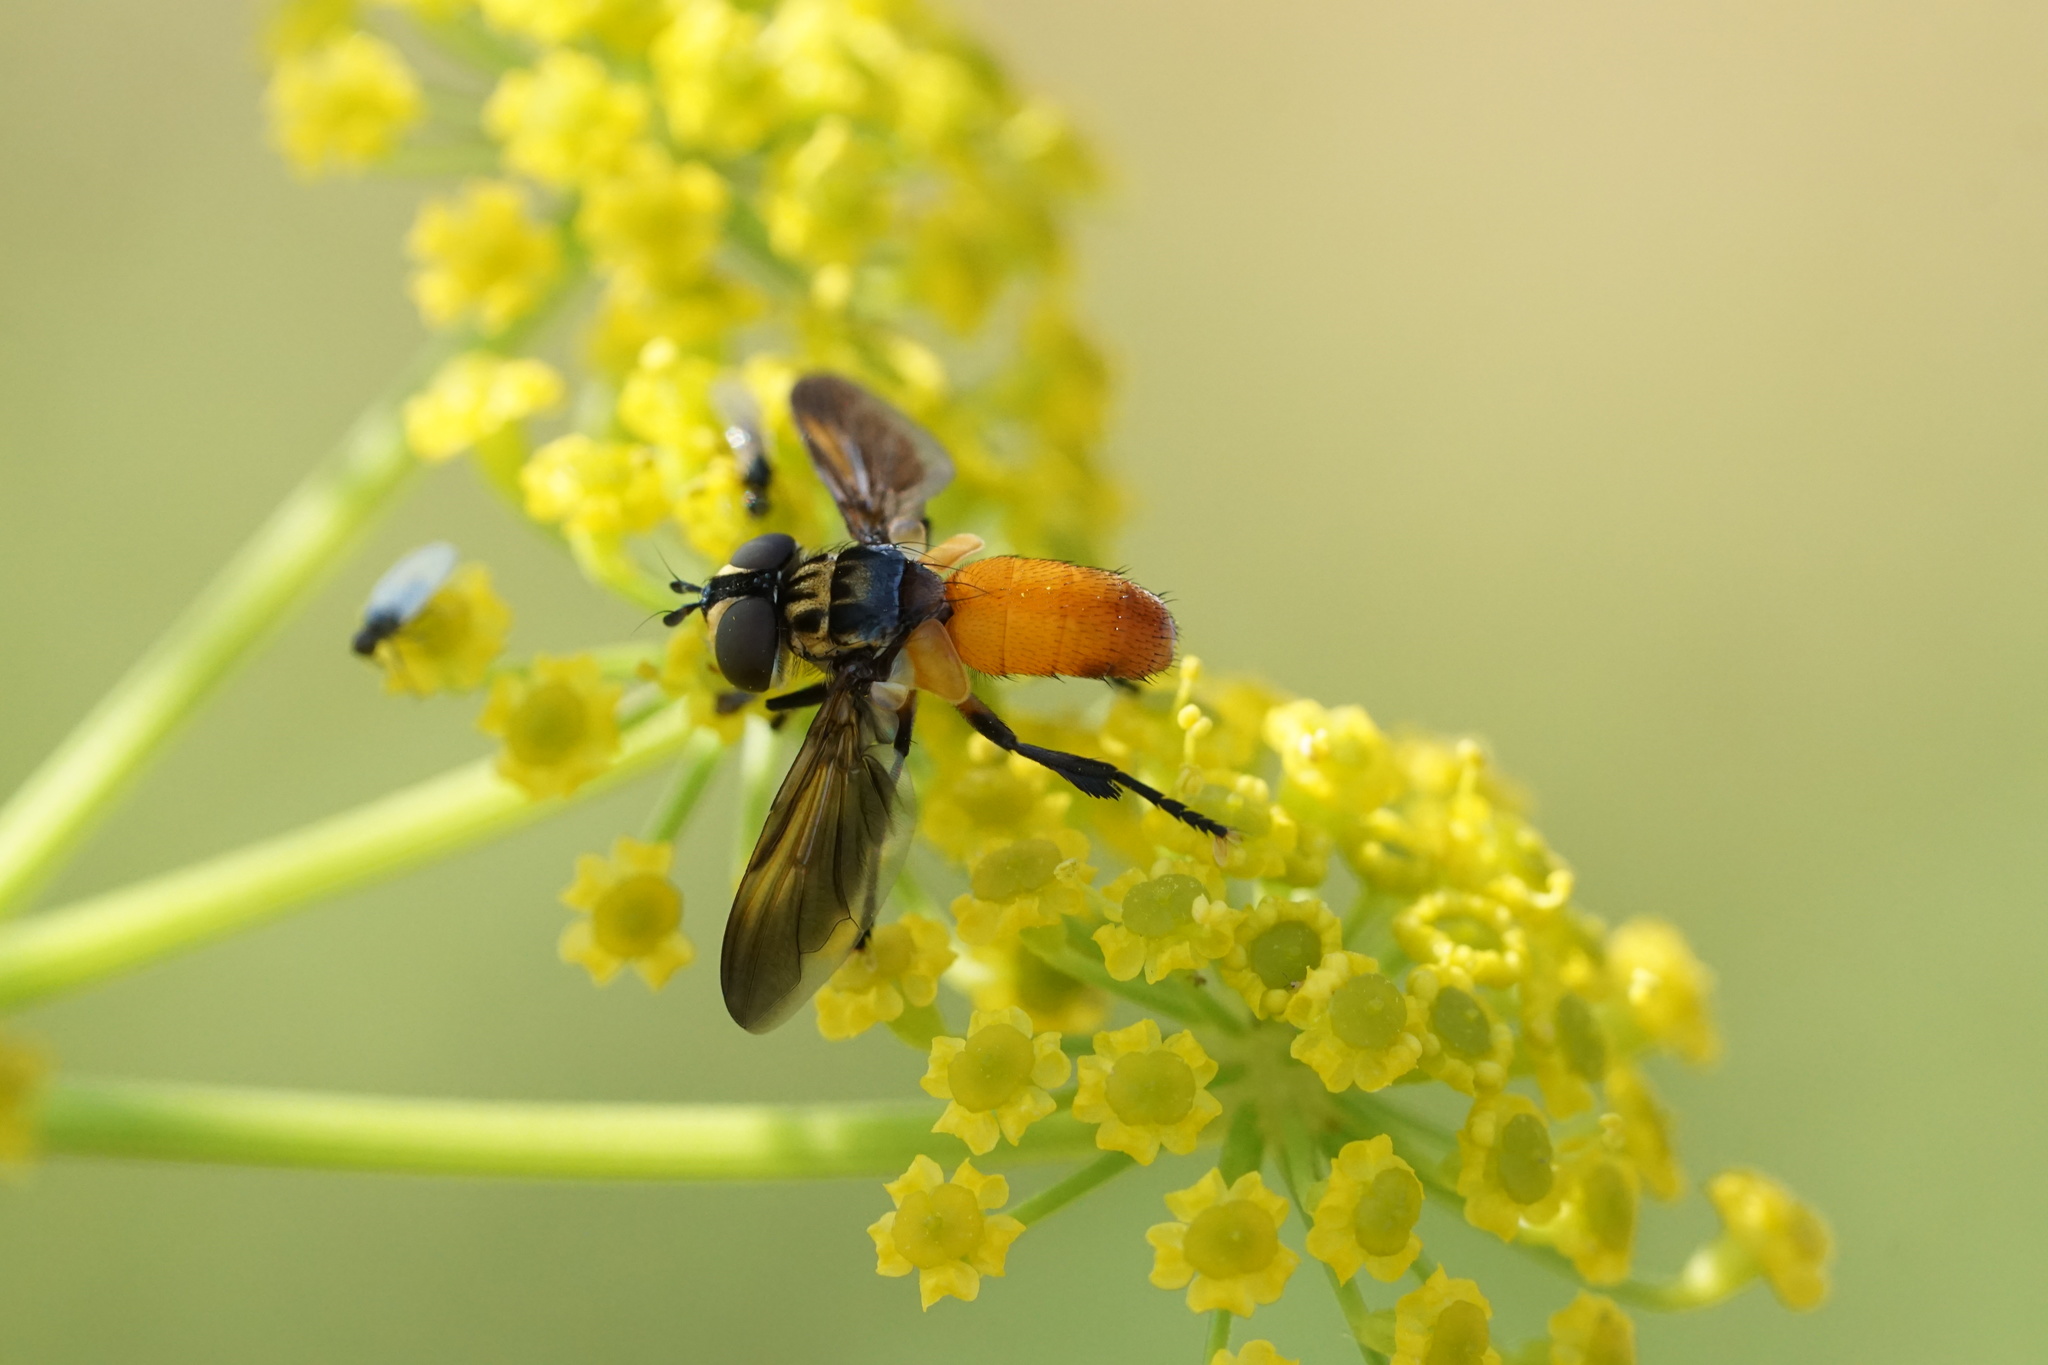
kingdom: Animalia
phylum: Arthropoda
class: Insecta
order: Diptera
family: Tachinidae
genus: Trichopoda
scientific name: Trichopoda pennipes
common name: Tachinid fly
